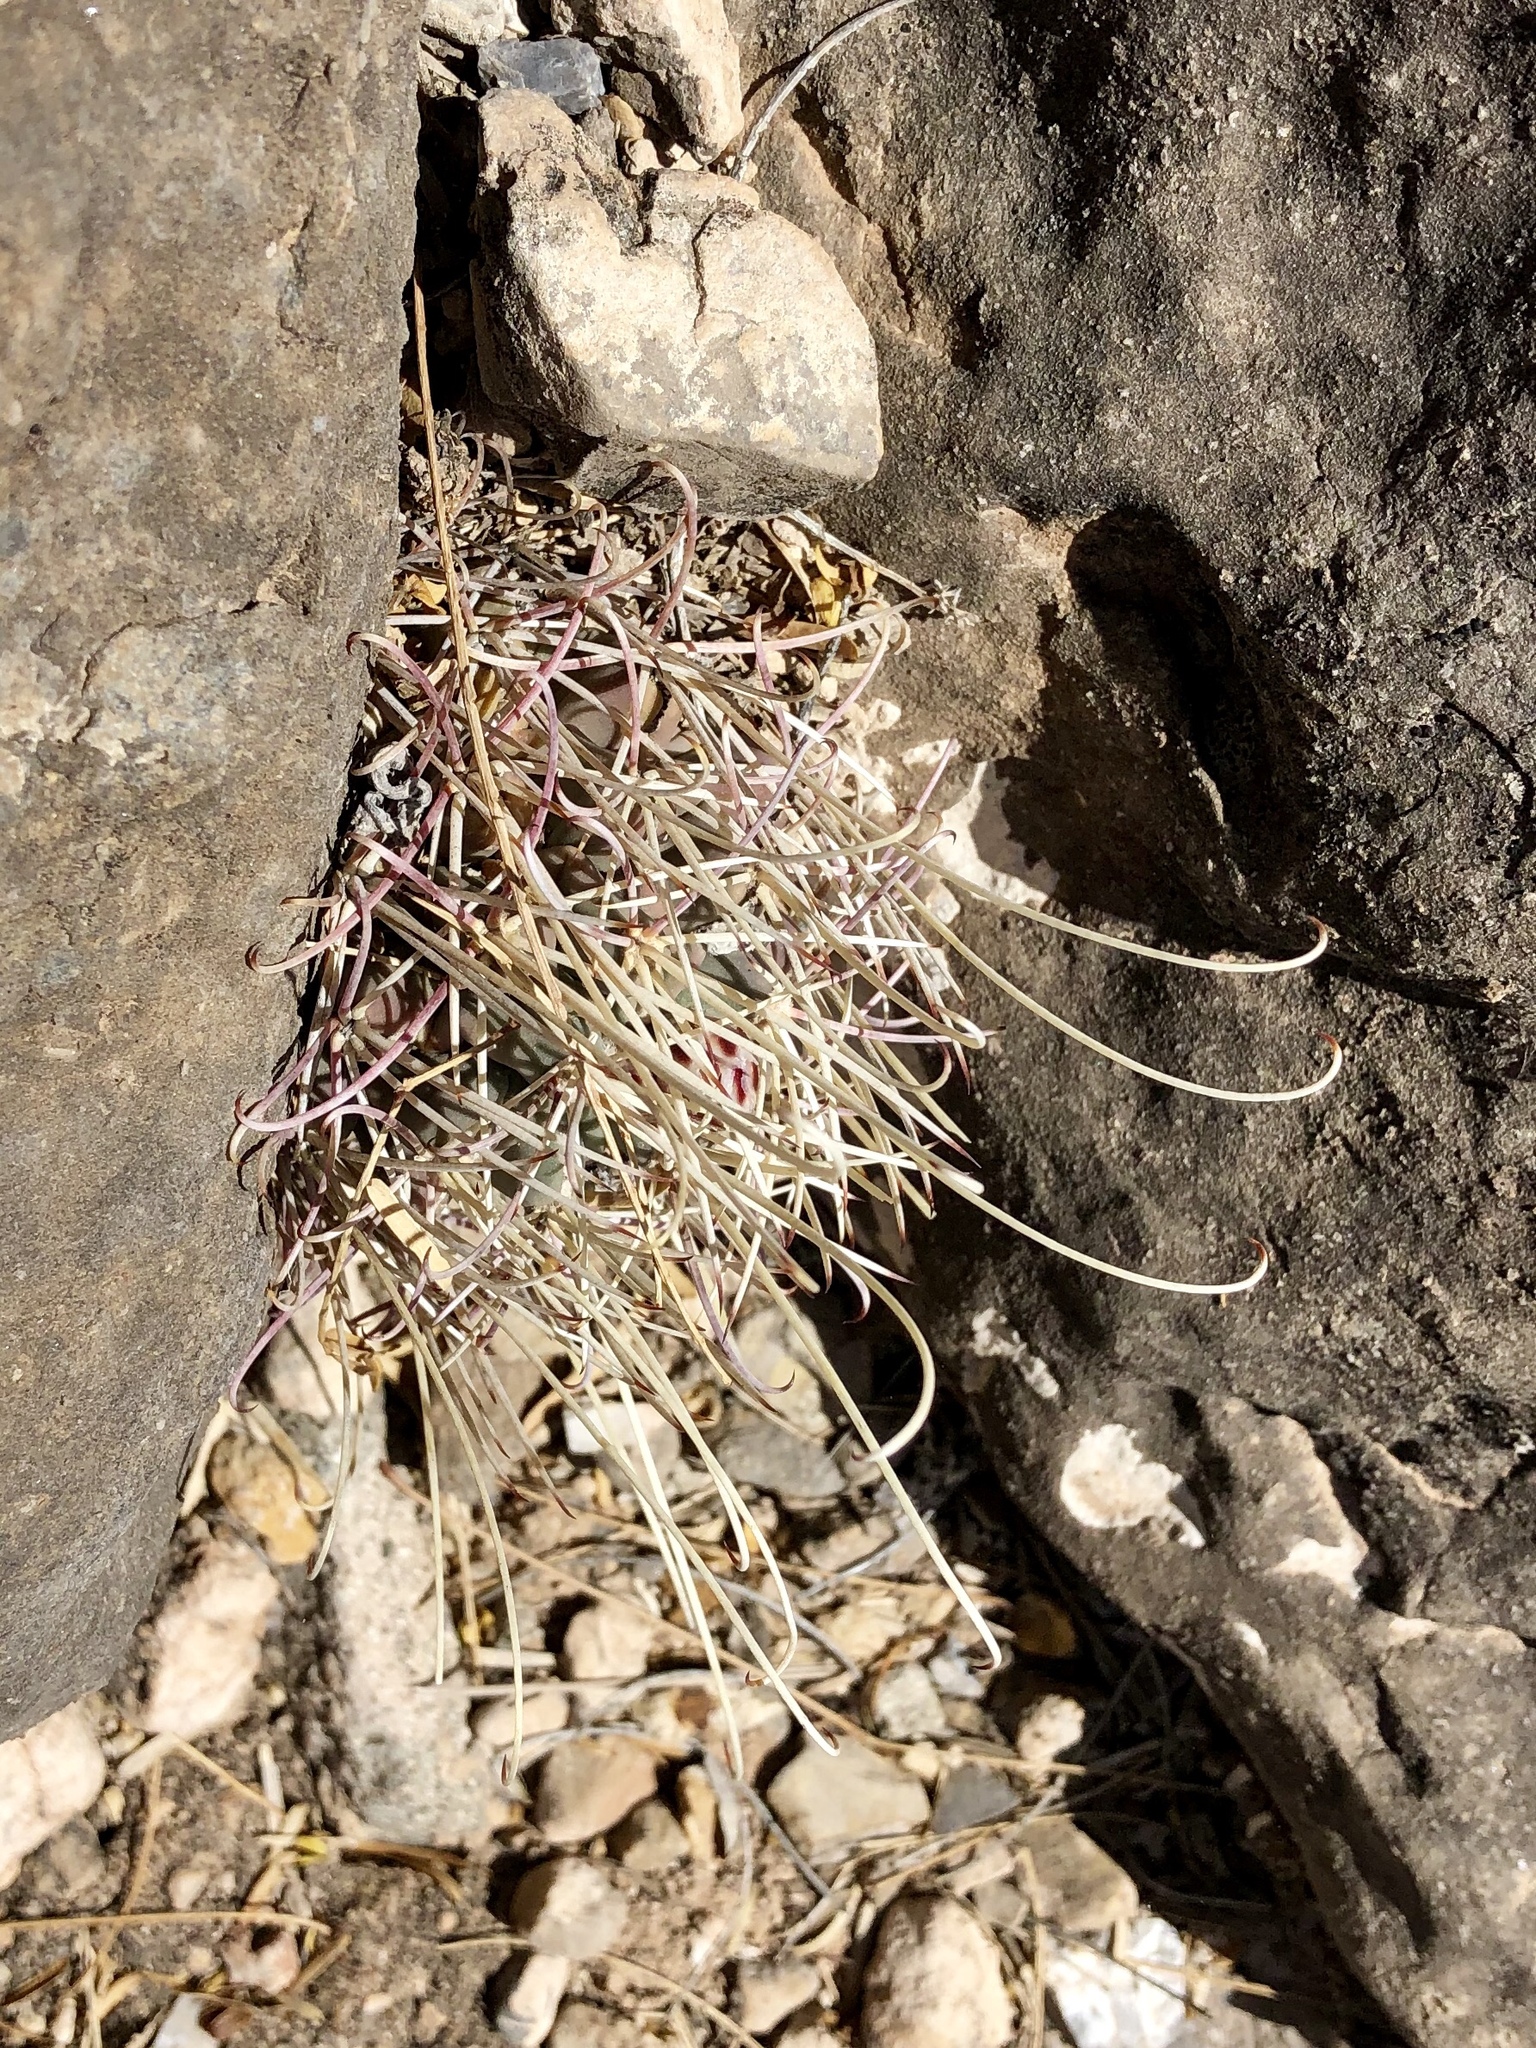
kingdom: Plantae
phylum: Tracheophyta
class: Magnoliopsida
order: Caryophyllales
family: Cactaceae
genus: Ferocactus
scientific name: Ferocactus uncinatus
